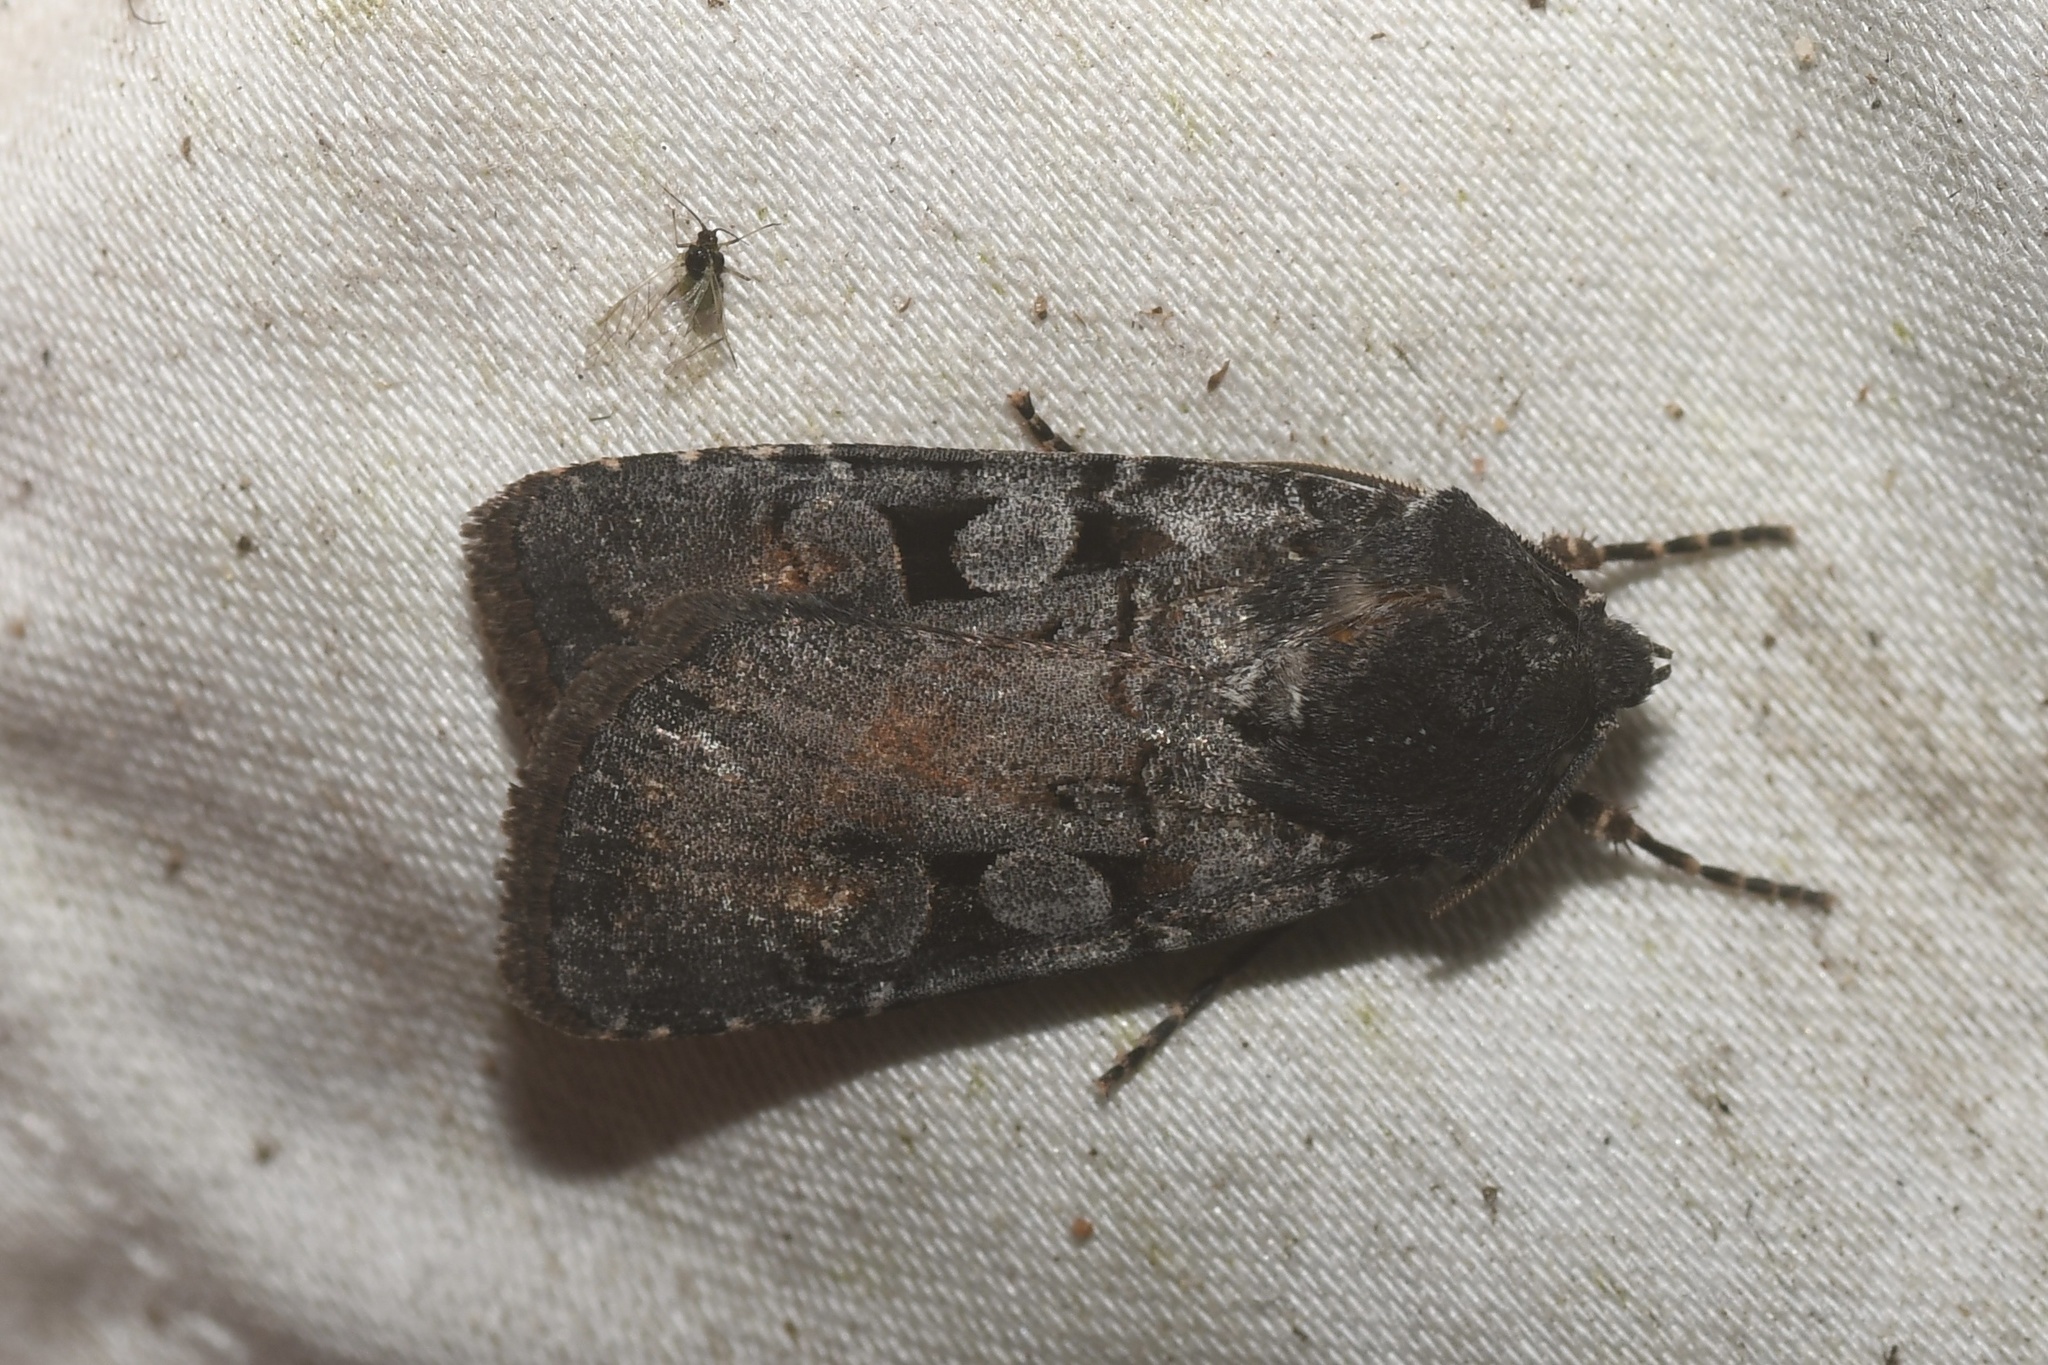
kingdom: Animalia
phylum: Arthropoda
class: Insecta
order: Lepidoptera
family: Noctuidae
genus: Euxoa
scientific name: Euxoa albipennis
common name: White-striped dart
